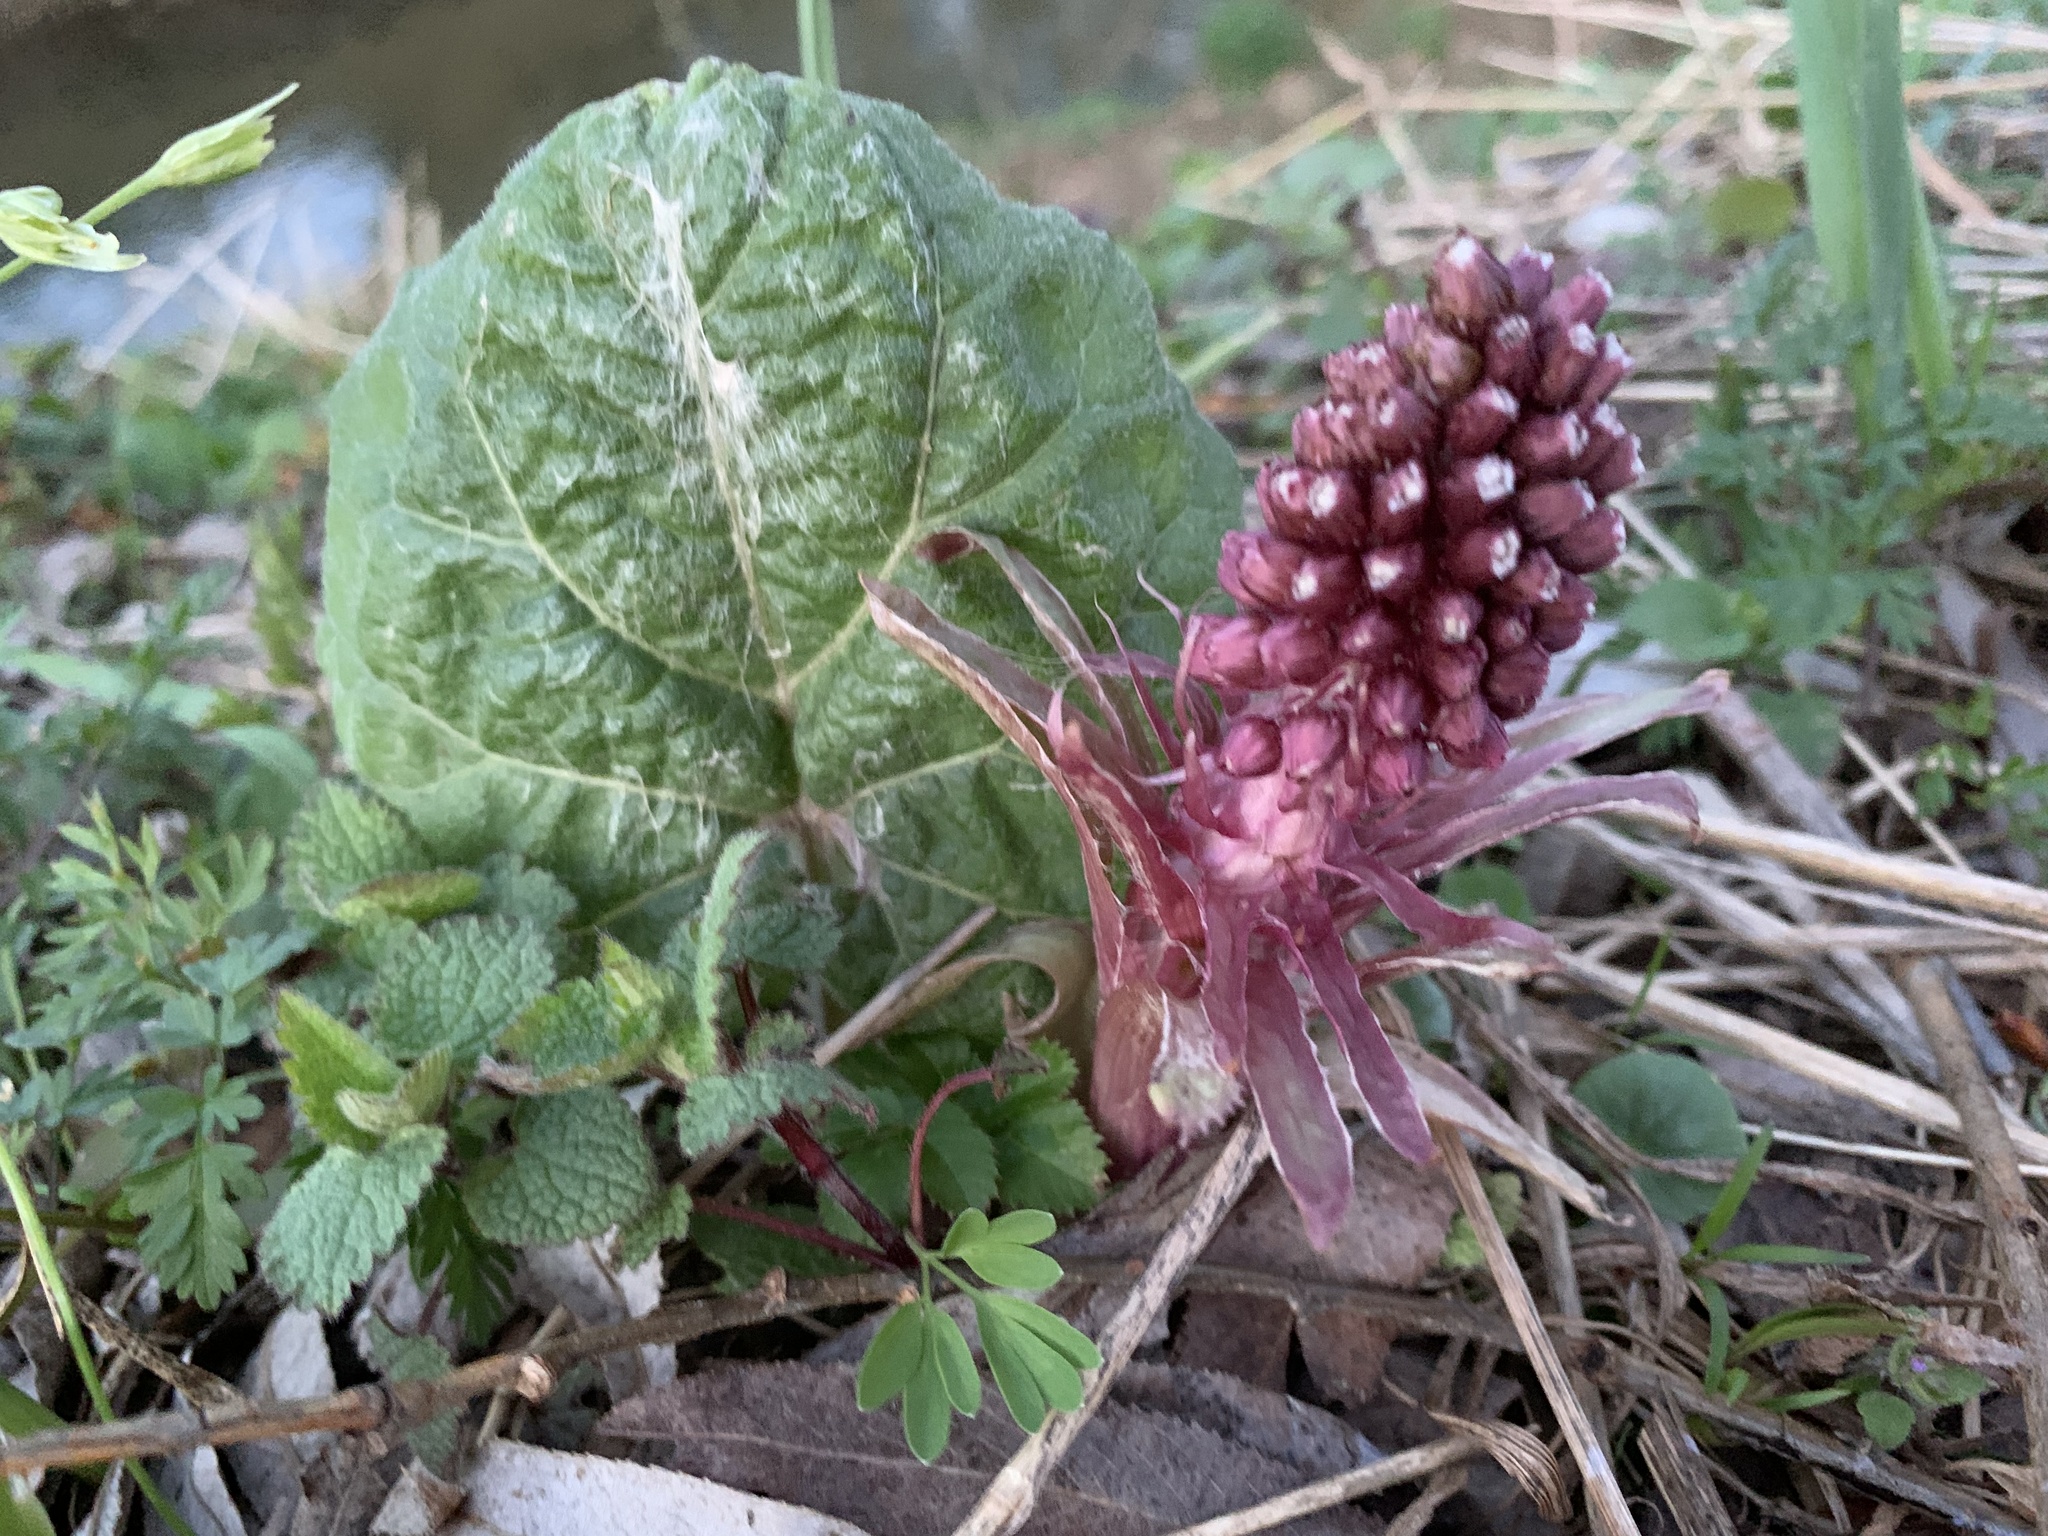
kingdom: Plantae
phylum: Tracheophyta
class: Magnoliopsida
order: Asterales
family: Asteraceae
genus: Petasites
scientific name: Petasites hybridus
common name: Butterbur
